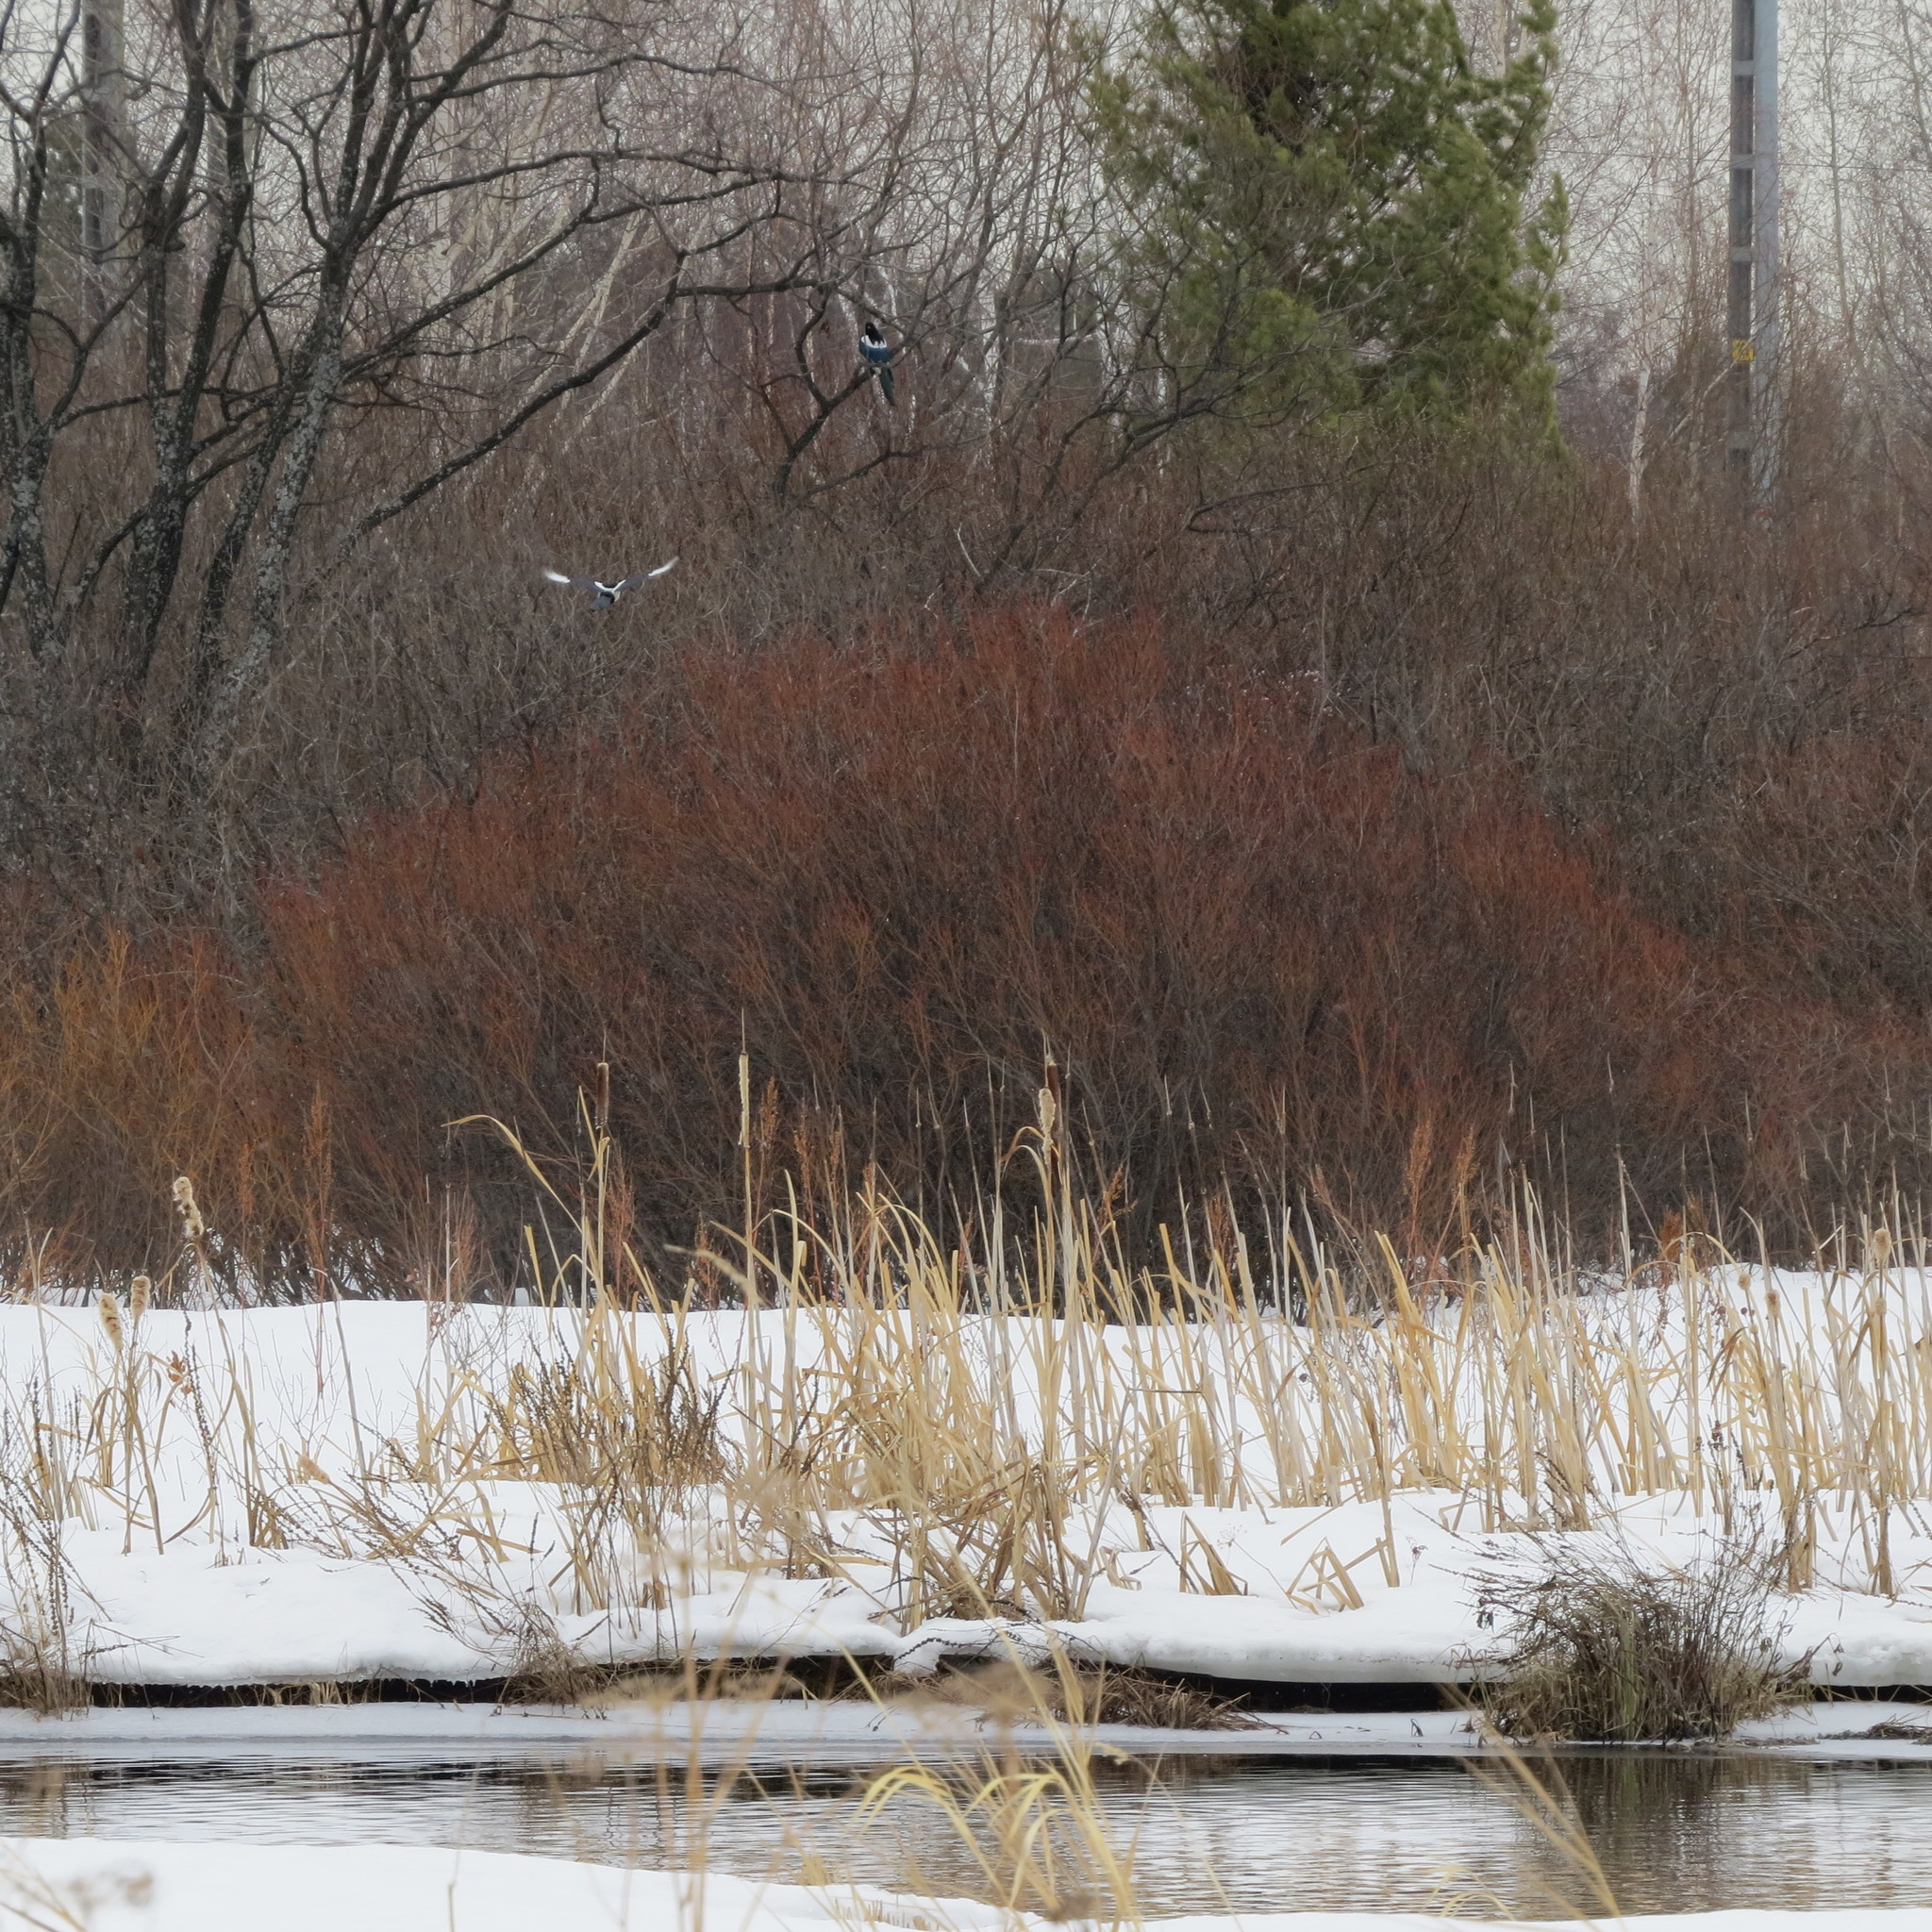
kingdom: Animalia
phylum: Chordata
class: Aves
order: Passeriformes
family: Corvidae
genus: Pica
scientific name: Pica pica
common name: Eurasian magpie
